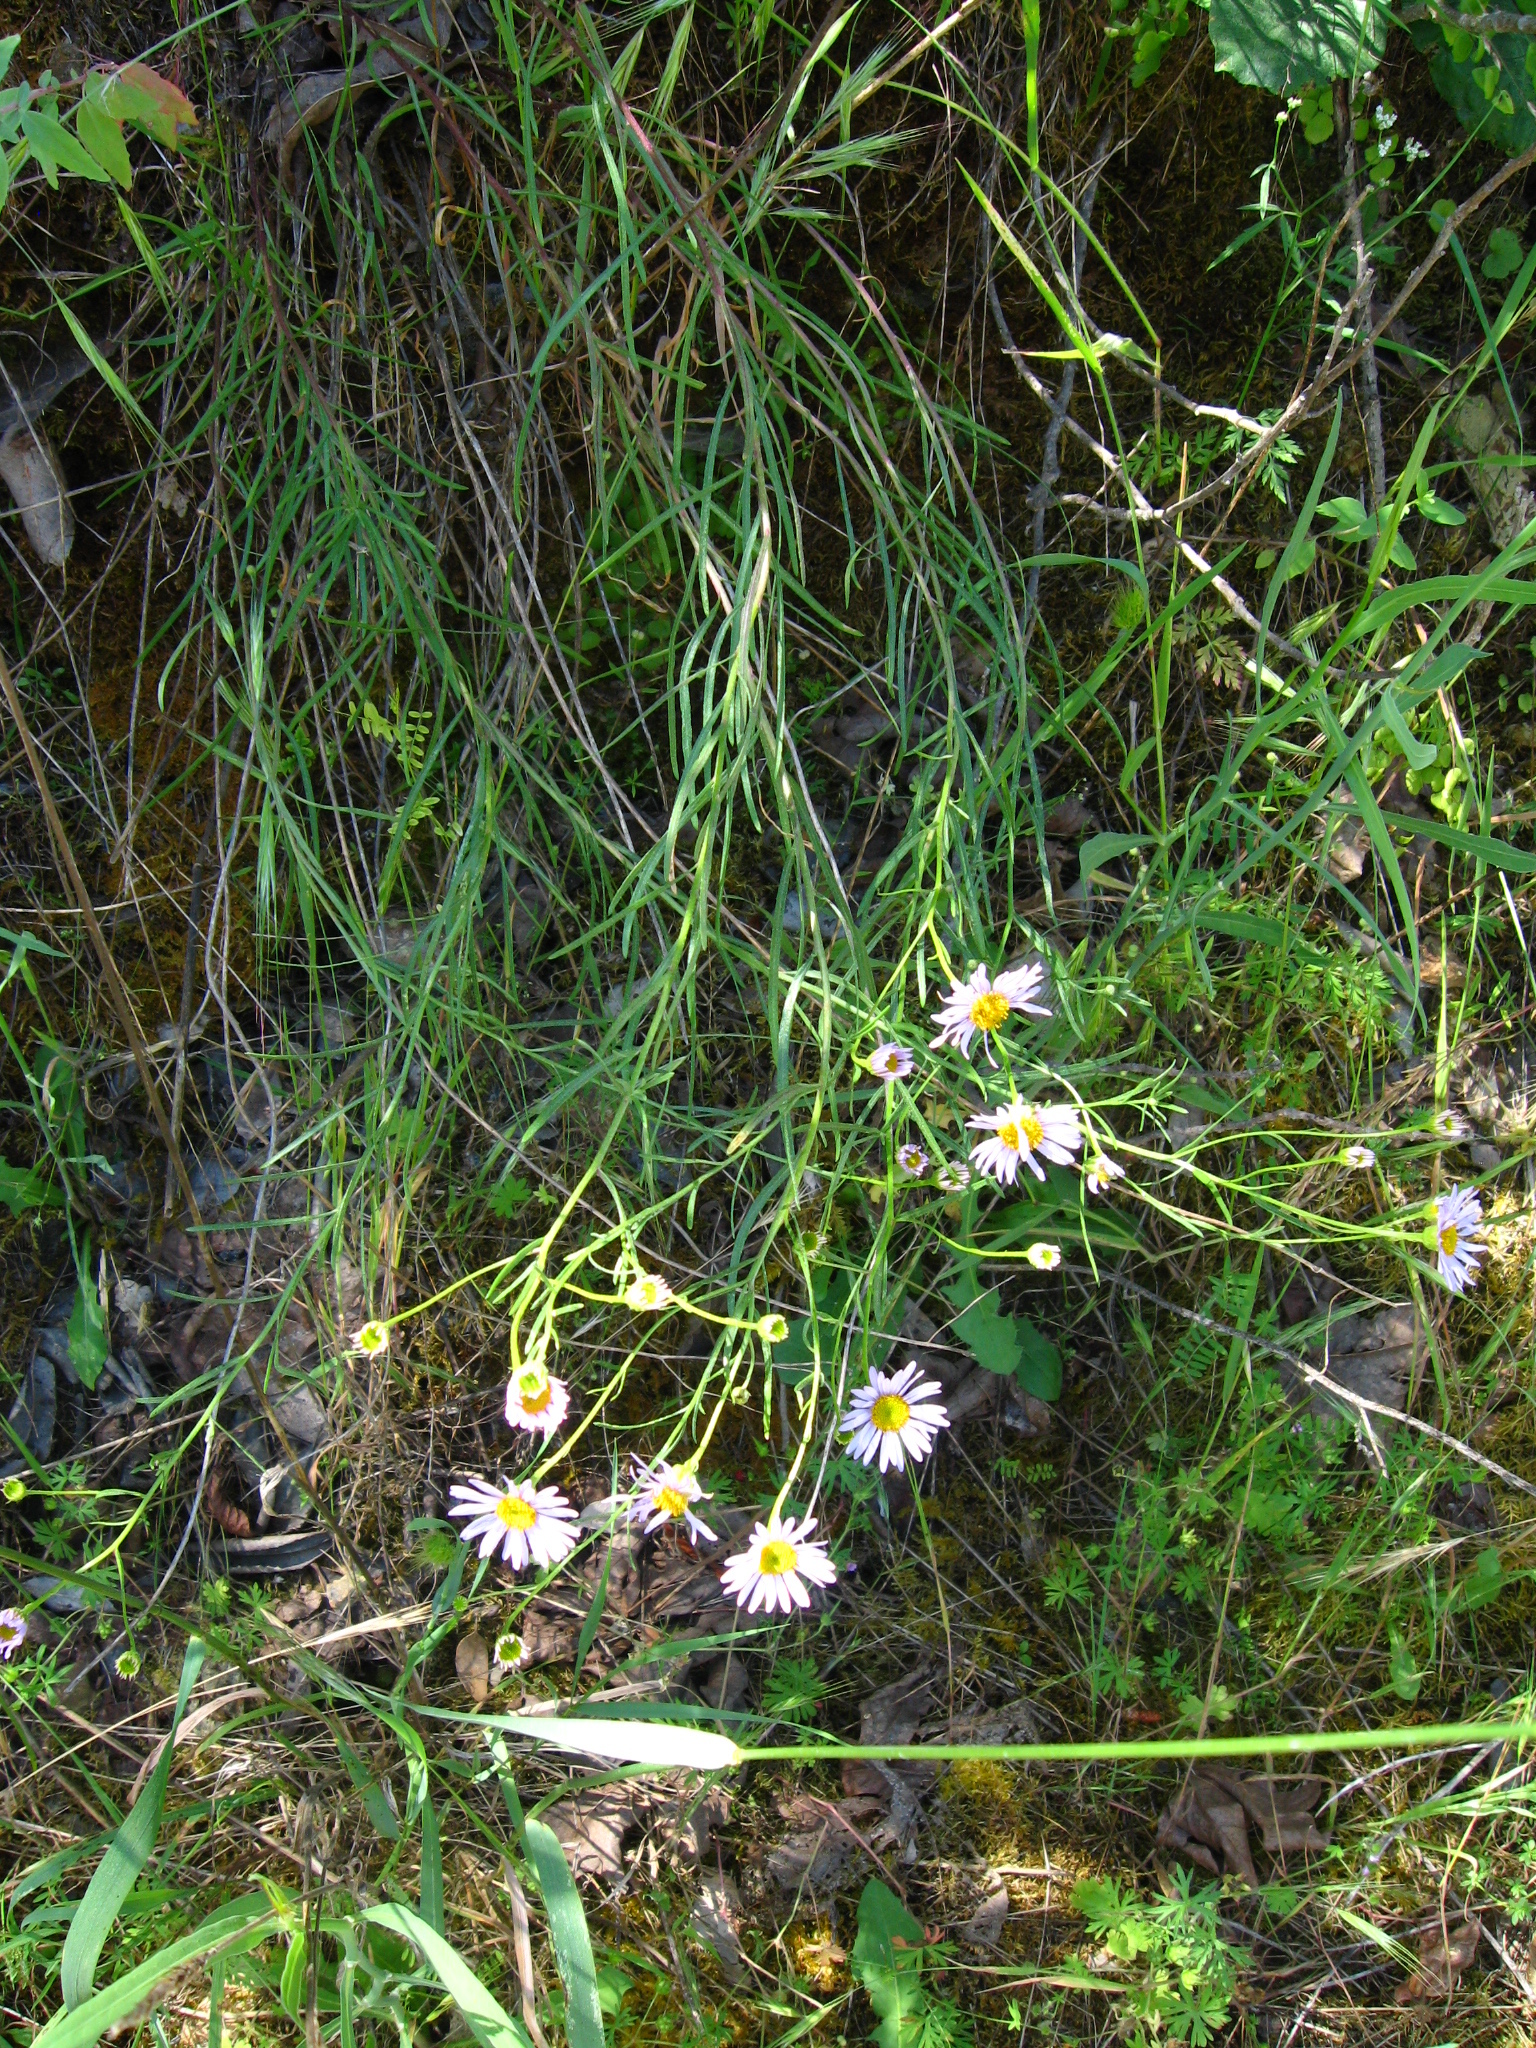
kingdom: Plantae
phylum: Tracheophyta
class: Magnoliopsida
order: Asterales
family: Asteraceae
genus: Erigeron
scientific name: Erigeron foliosus
